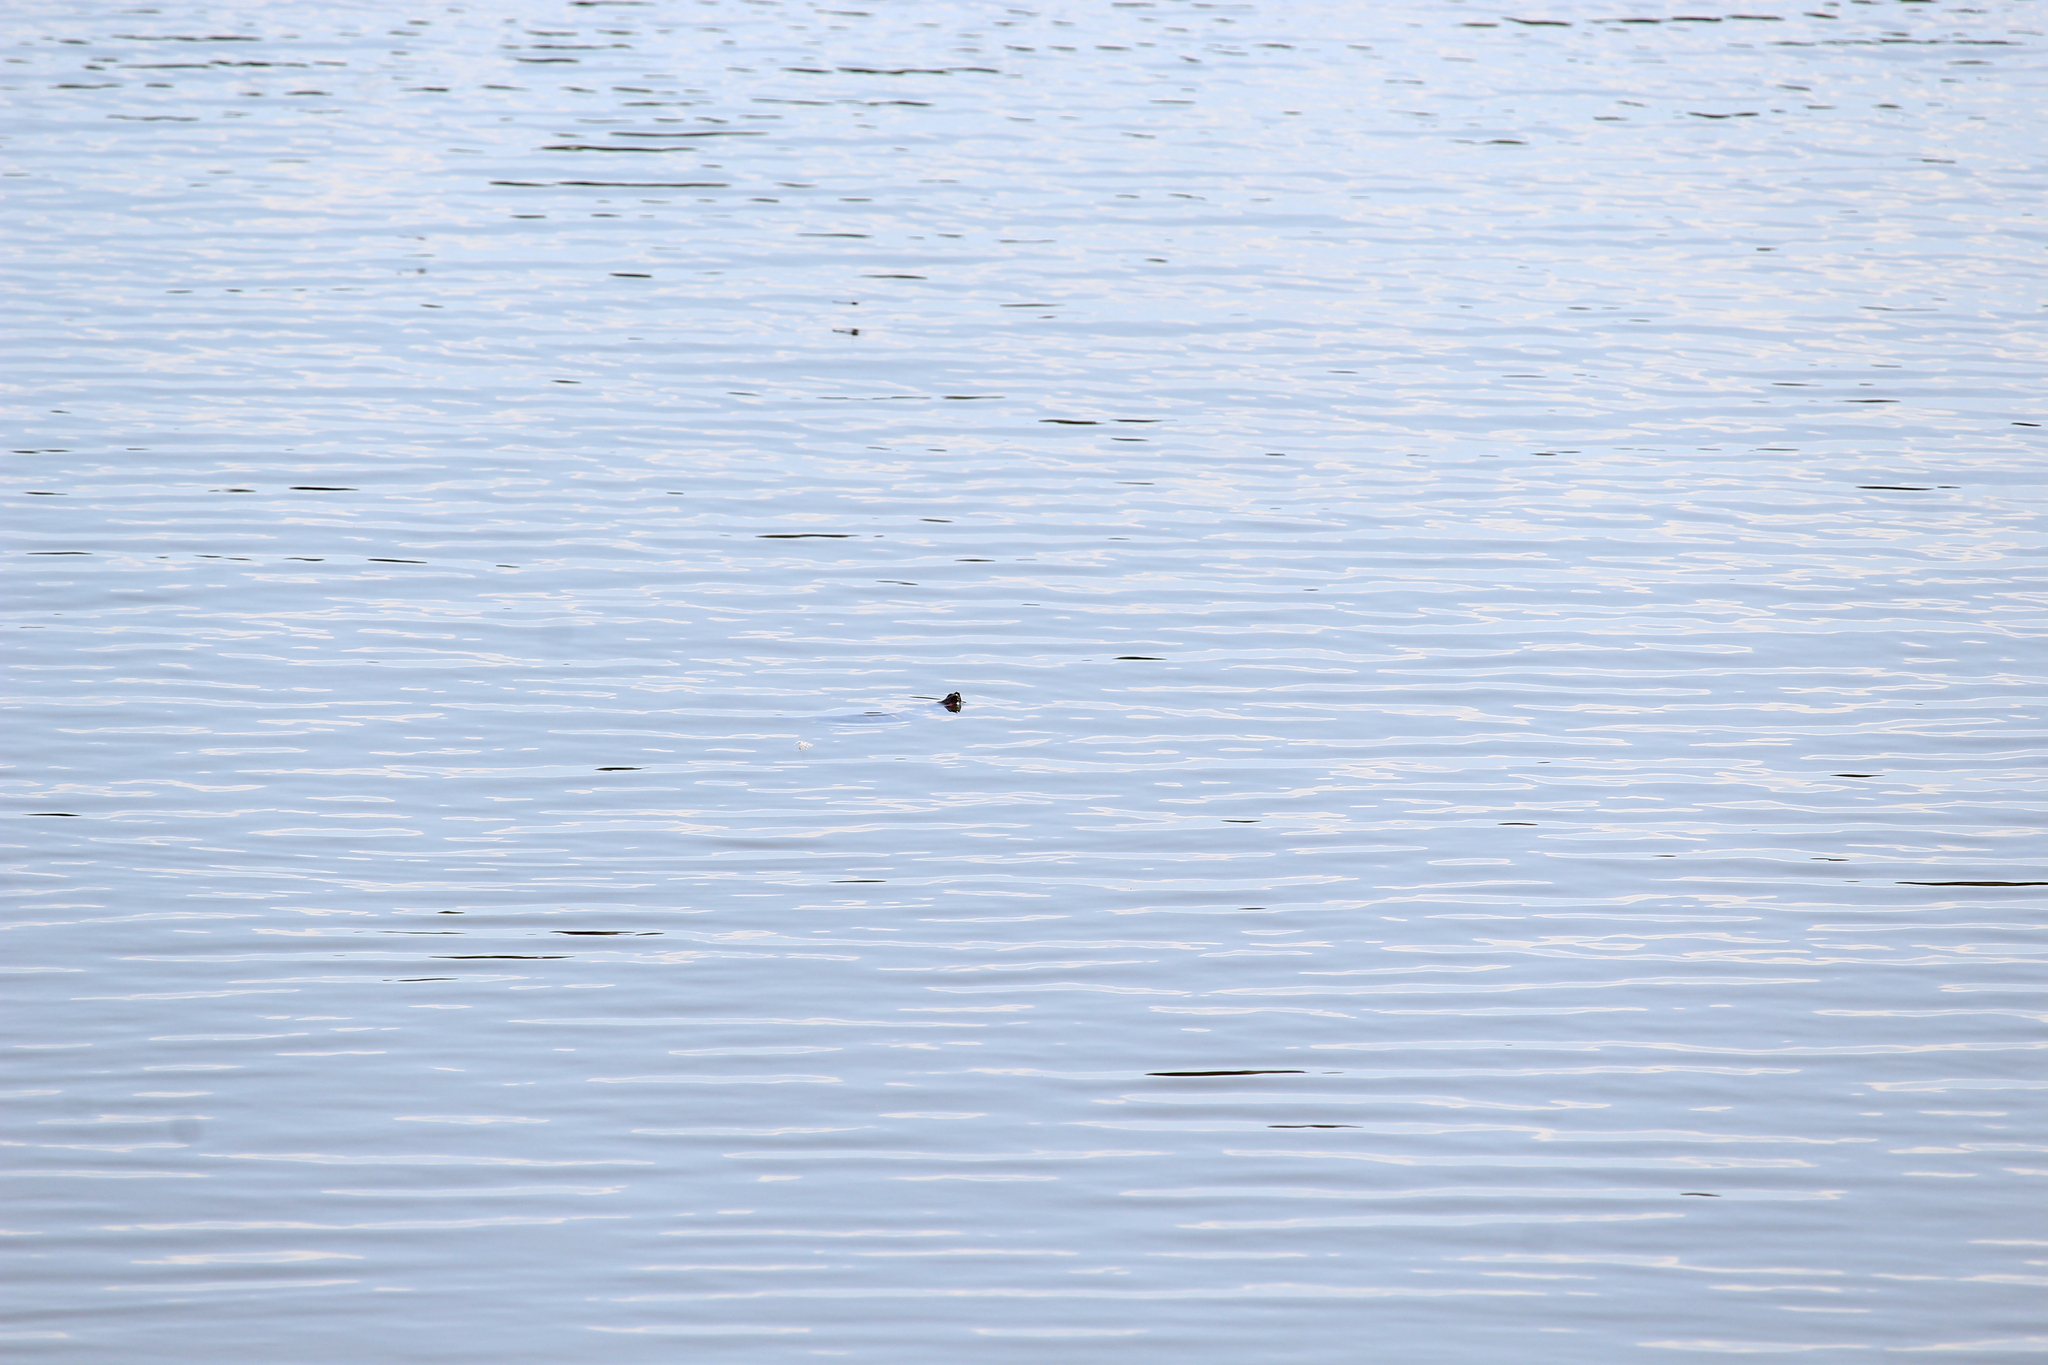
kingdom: Animalia
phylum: Chordata
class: Testudines
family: Emydidae
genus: Trachemys
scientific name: Trachemys scripta
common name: Slider
